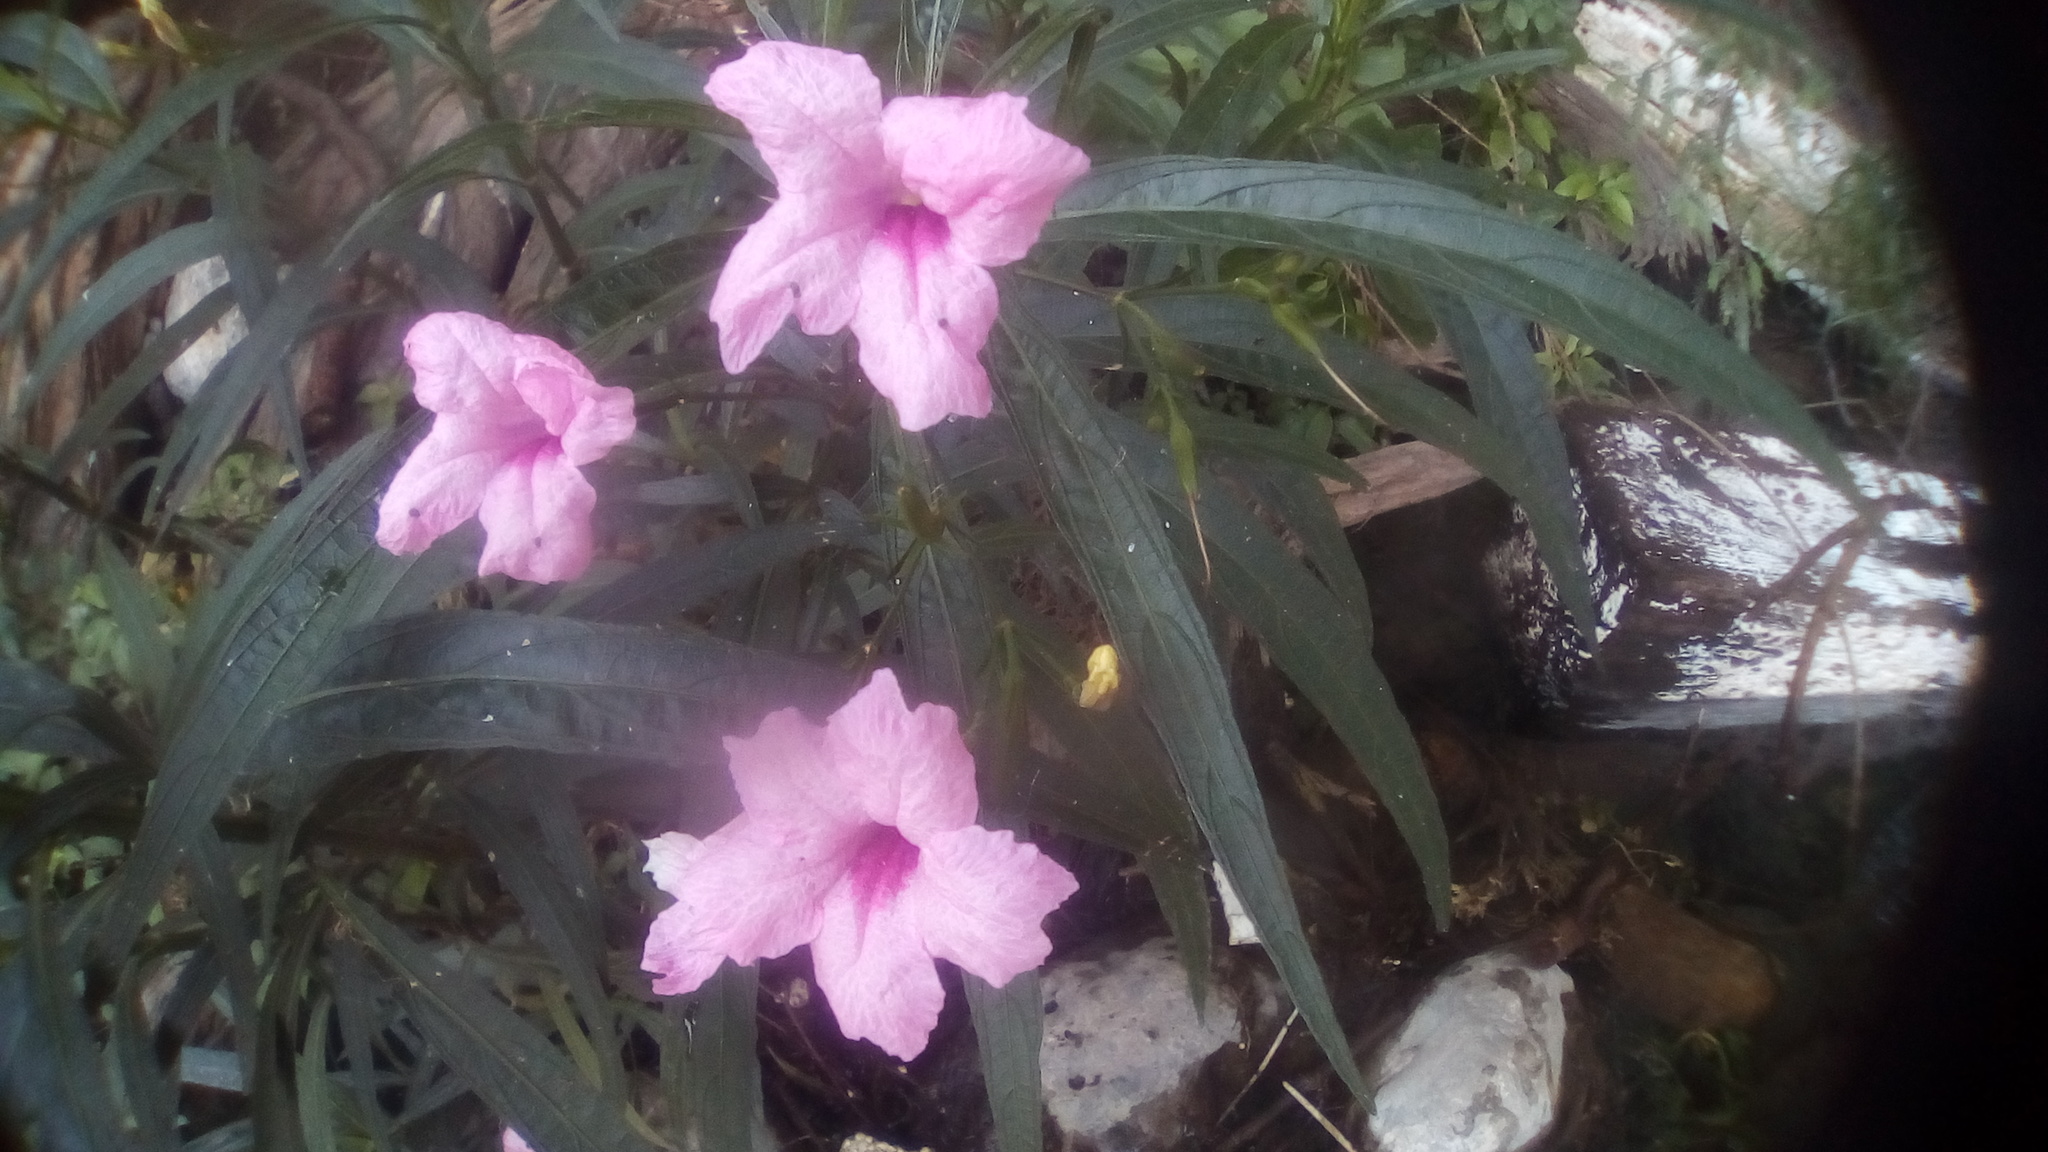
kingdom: Plantae
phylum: Tracheophyta
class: Magnoliopsida
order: Lamiales
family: Acanthaceae
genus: Ruellia
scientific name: Ruellia simplex
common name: Softseed wild petunia
